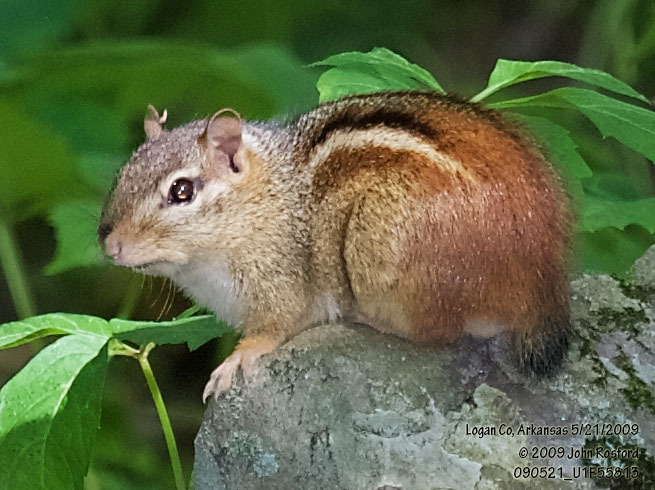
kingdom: Animalia
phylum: Chordata
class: Mammalia
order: Rodentia
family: Sciuridae
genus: Tamias
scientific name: Tamias striatus
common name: Eastern chipmunk
